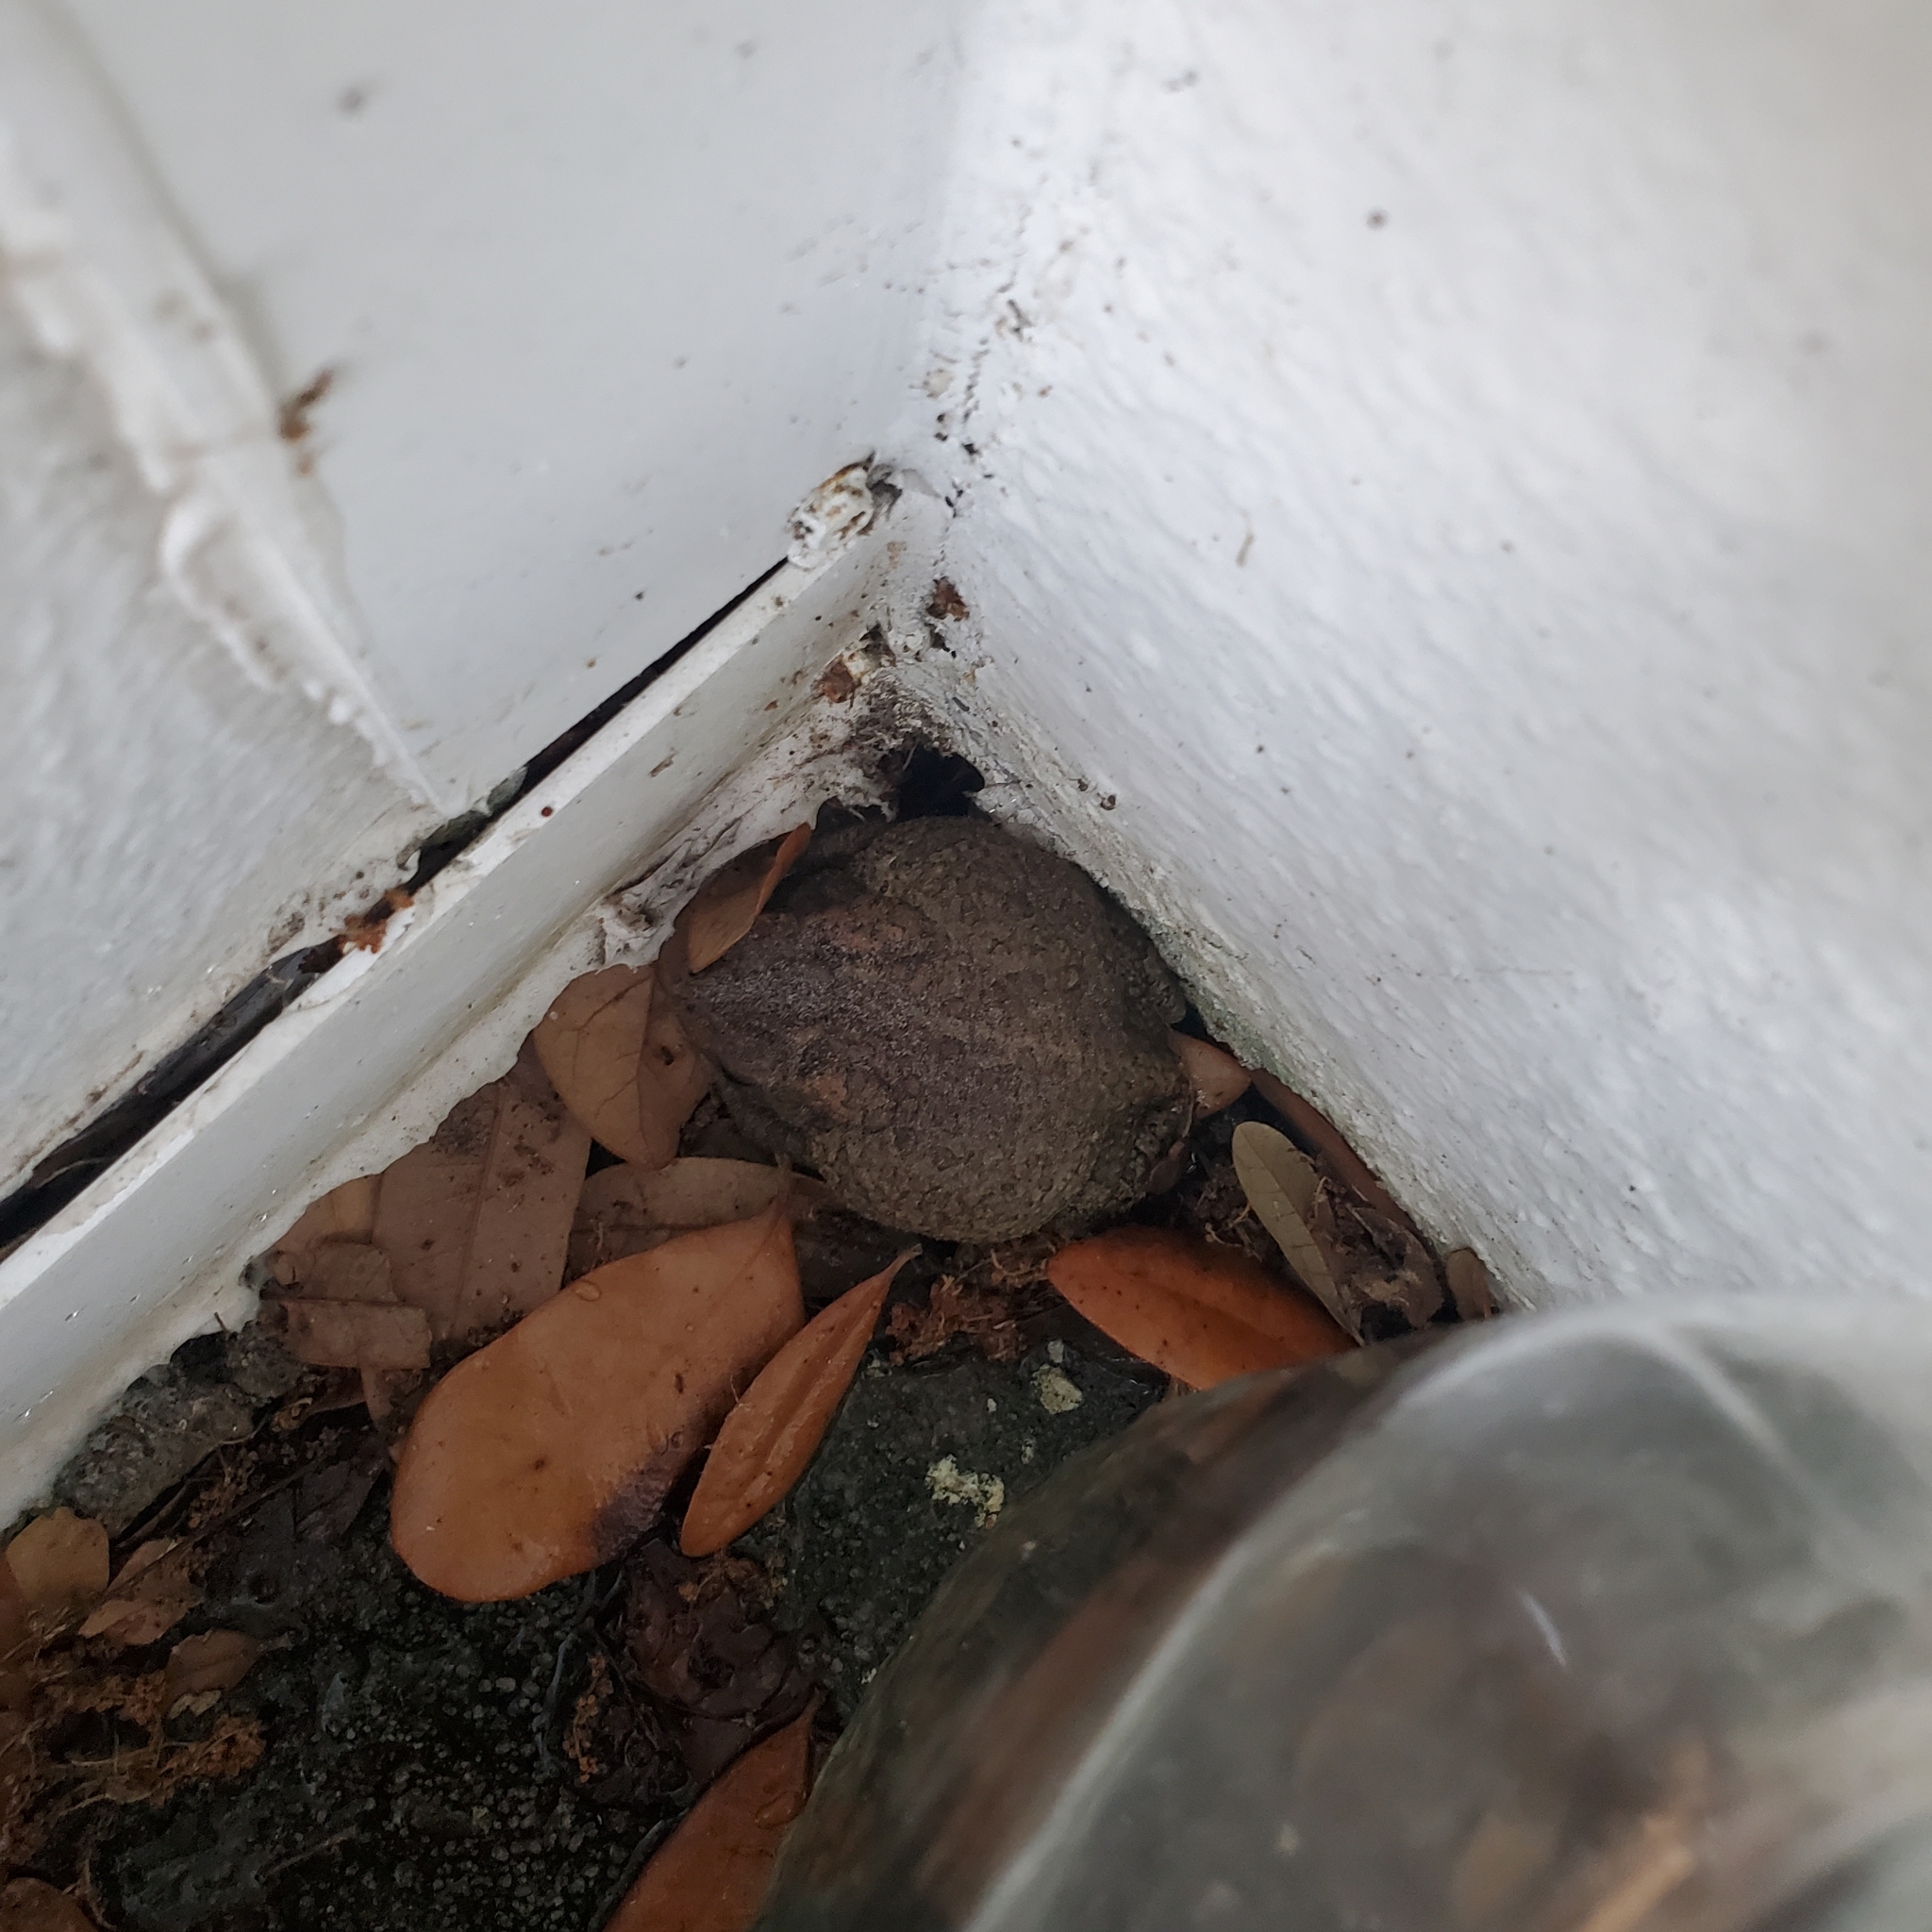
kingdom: Animalia
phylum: Chordata
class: Amphibia
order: Anura
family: Bufonidae
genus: Anaxyrus
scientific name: Anaxyrus terrestris
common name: Southern toad
